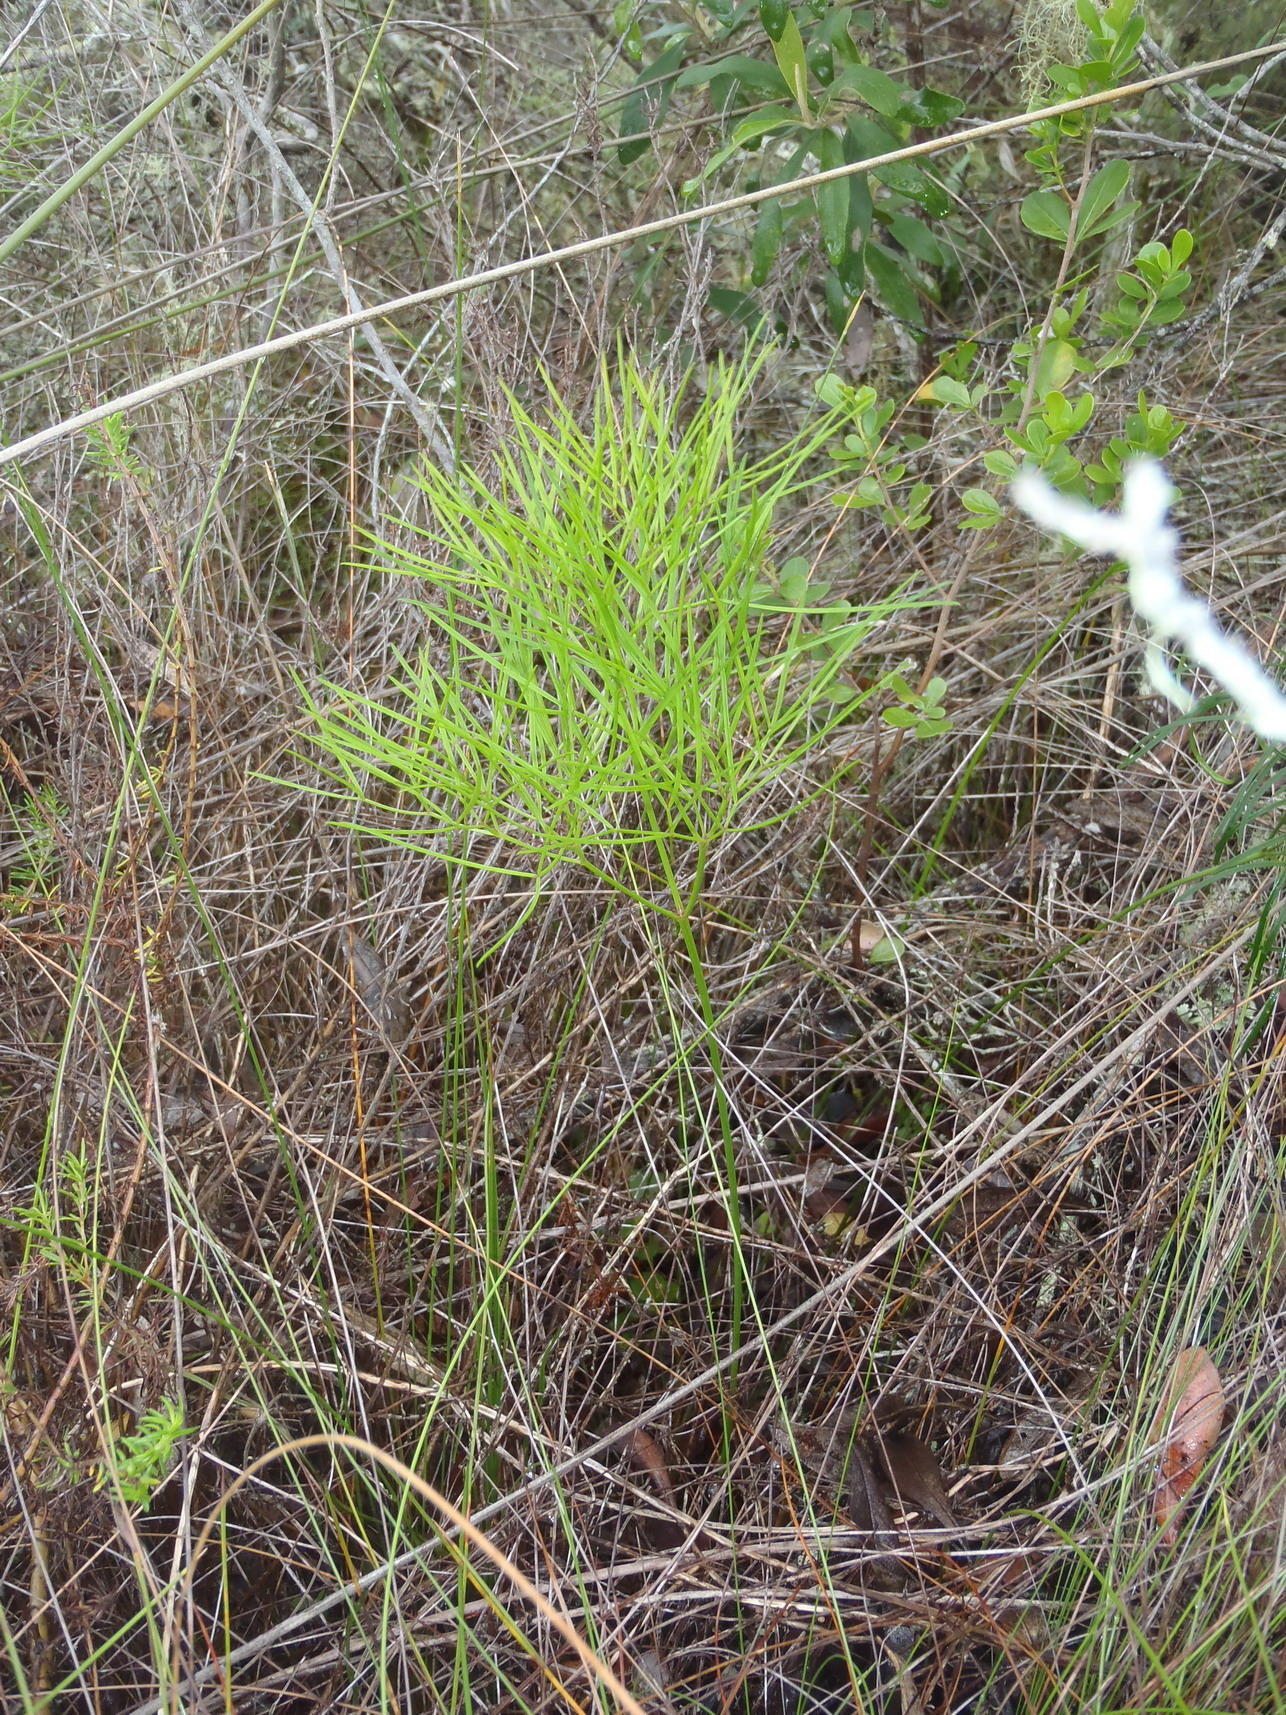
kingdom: Plantae
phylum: Tracheophyta
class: Magnoliopsida
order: Apiales
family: Apiaceae
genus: Nanobubon
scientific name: Nanobubon hypogaeum
